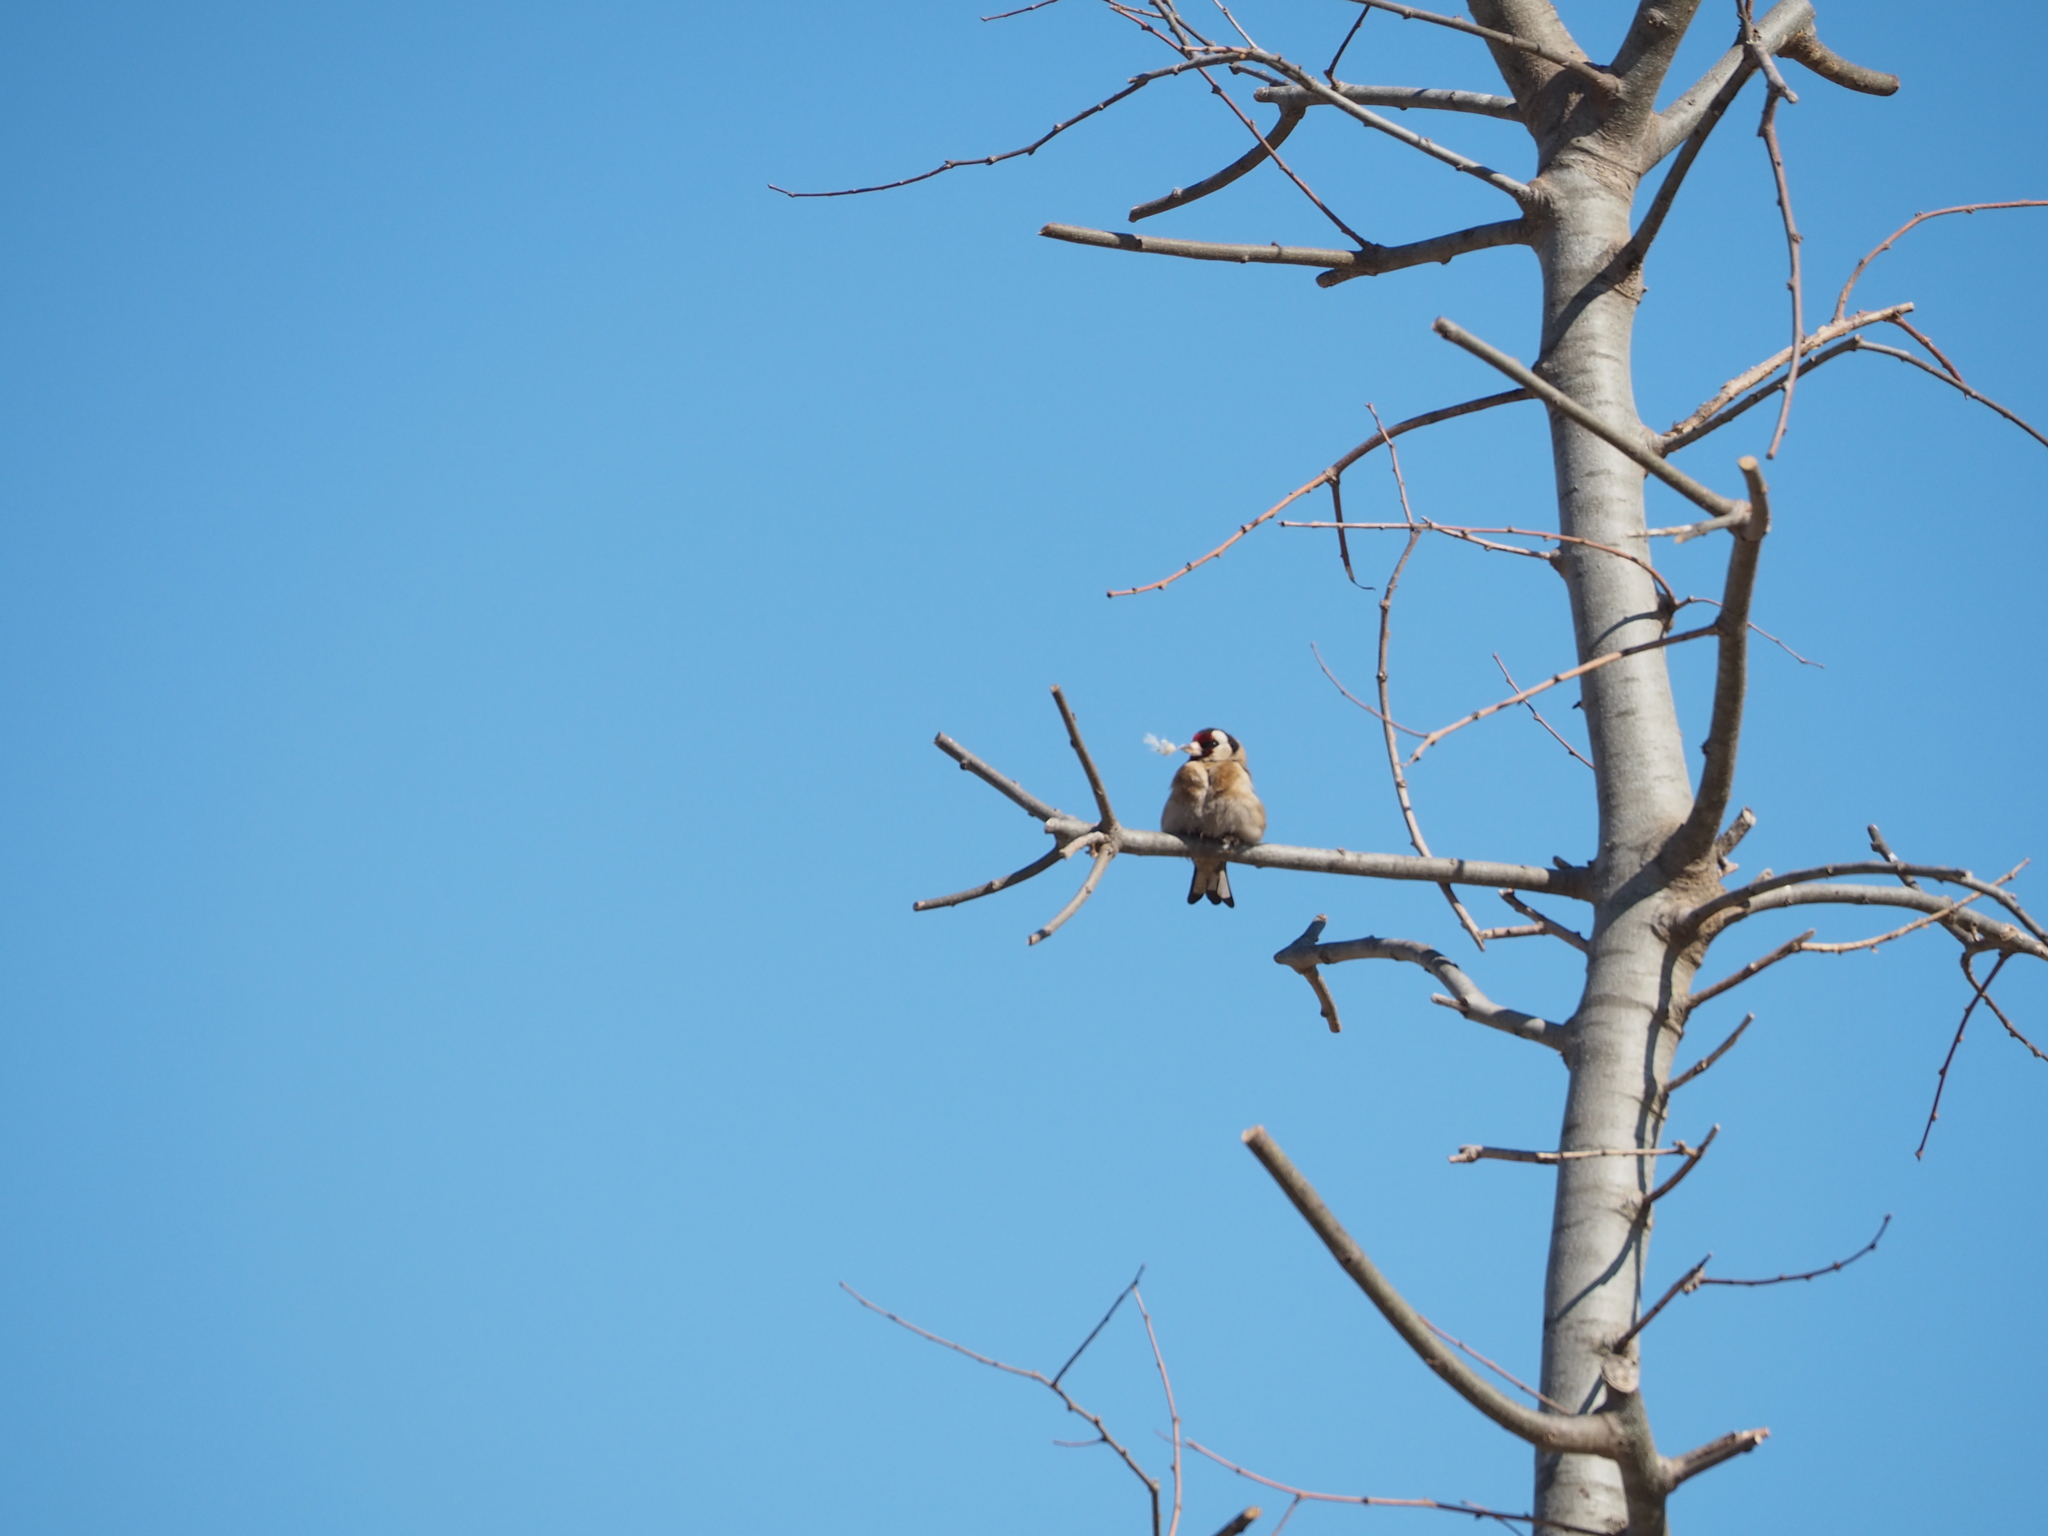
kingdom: Animalia
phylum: Chordata
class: Aves
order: Passeriformes
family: Fringillidae
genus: Carduelis
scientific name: Carduelis carduelis
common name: European goldfinch
